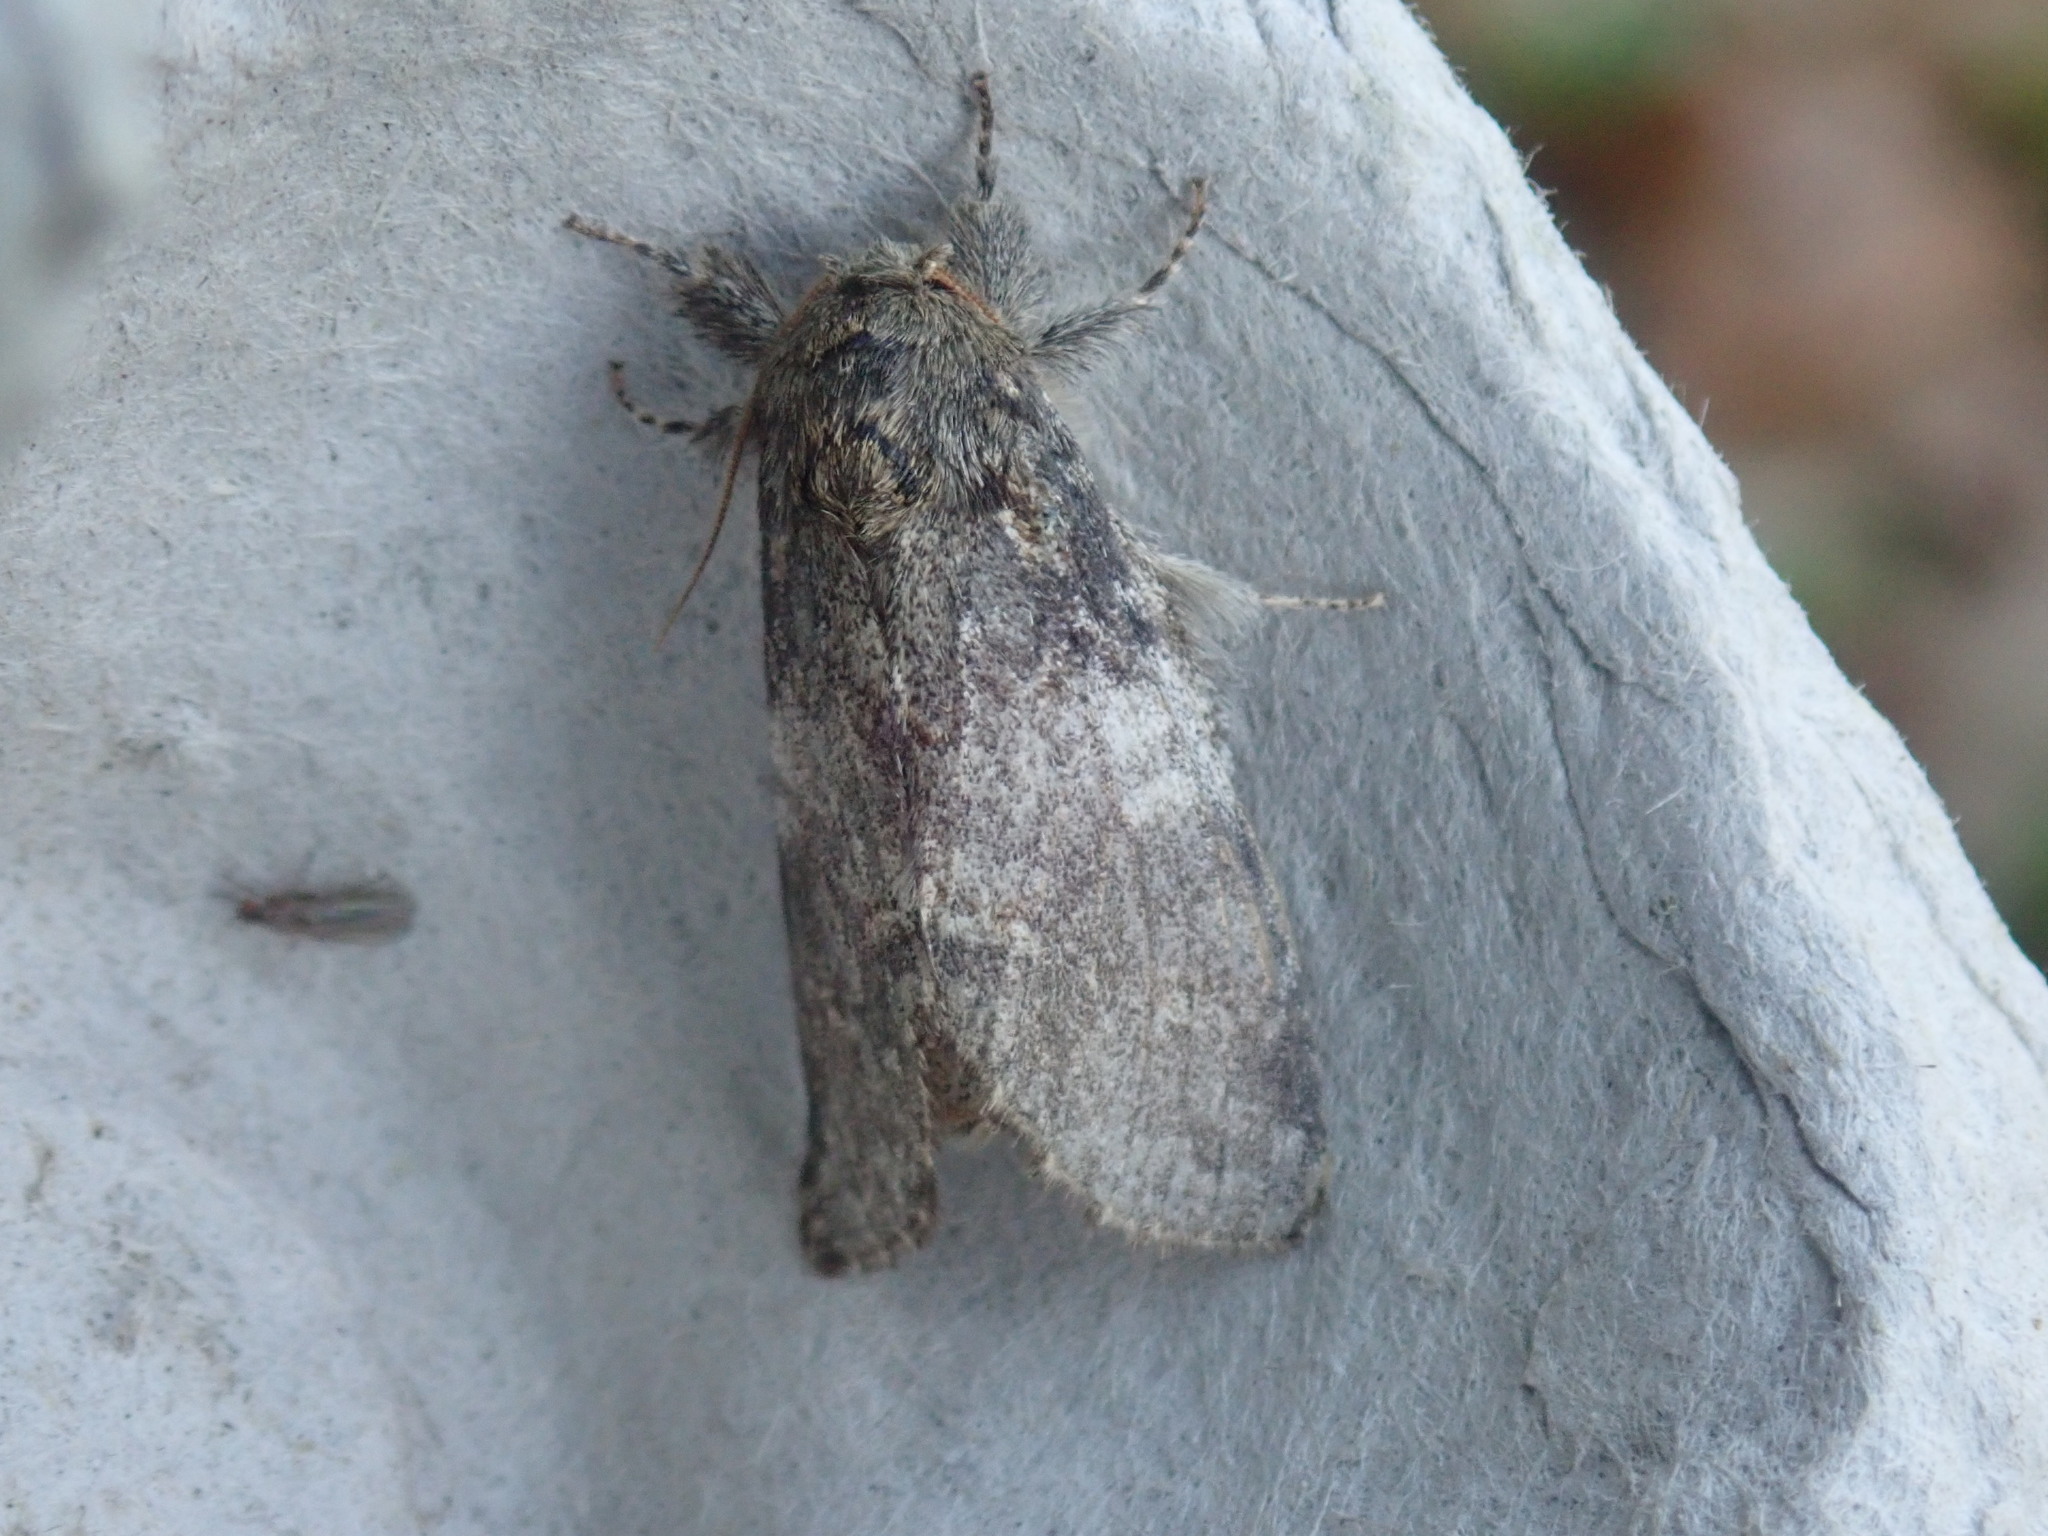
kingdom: Animalia
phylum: Arthropoda
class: Insecta
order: Lepidoptera
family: Notodontidae
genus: Peridea
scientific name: Peridea angulosa
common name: Angulose prominent
